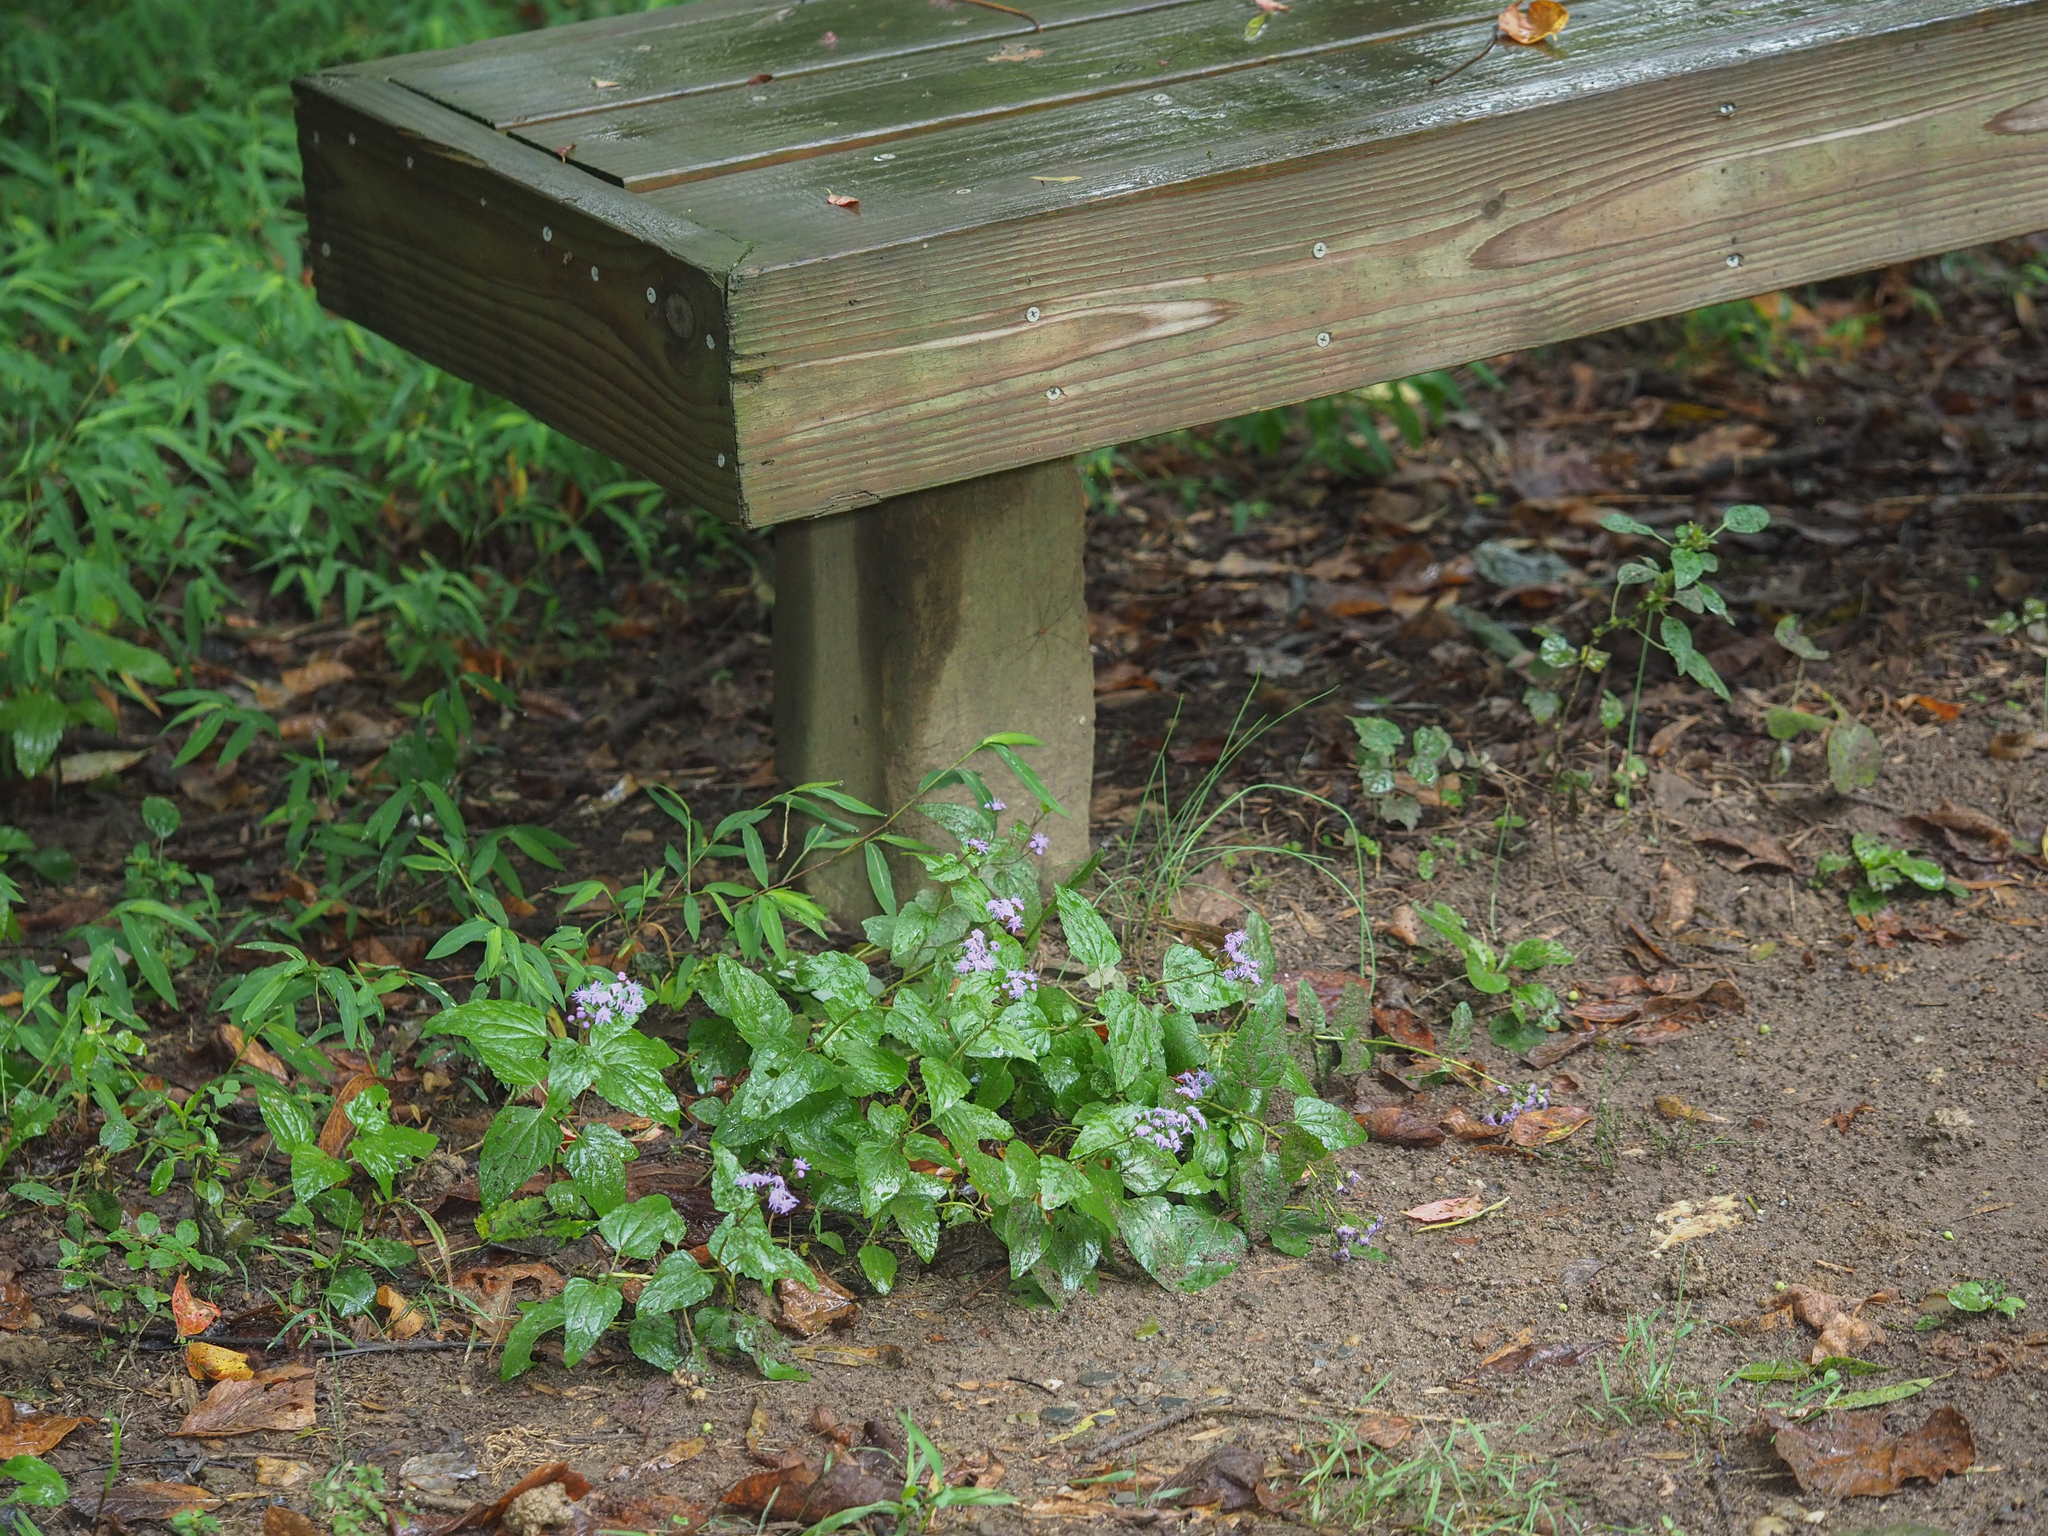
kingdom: Plantae
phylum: Tracheophyta
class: Magnoliopsida
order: Asterales
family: Asteraceae
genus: Conoclinium
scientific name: Conoclinium coelestinum
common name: Blue mistflower
